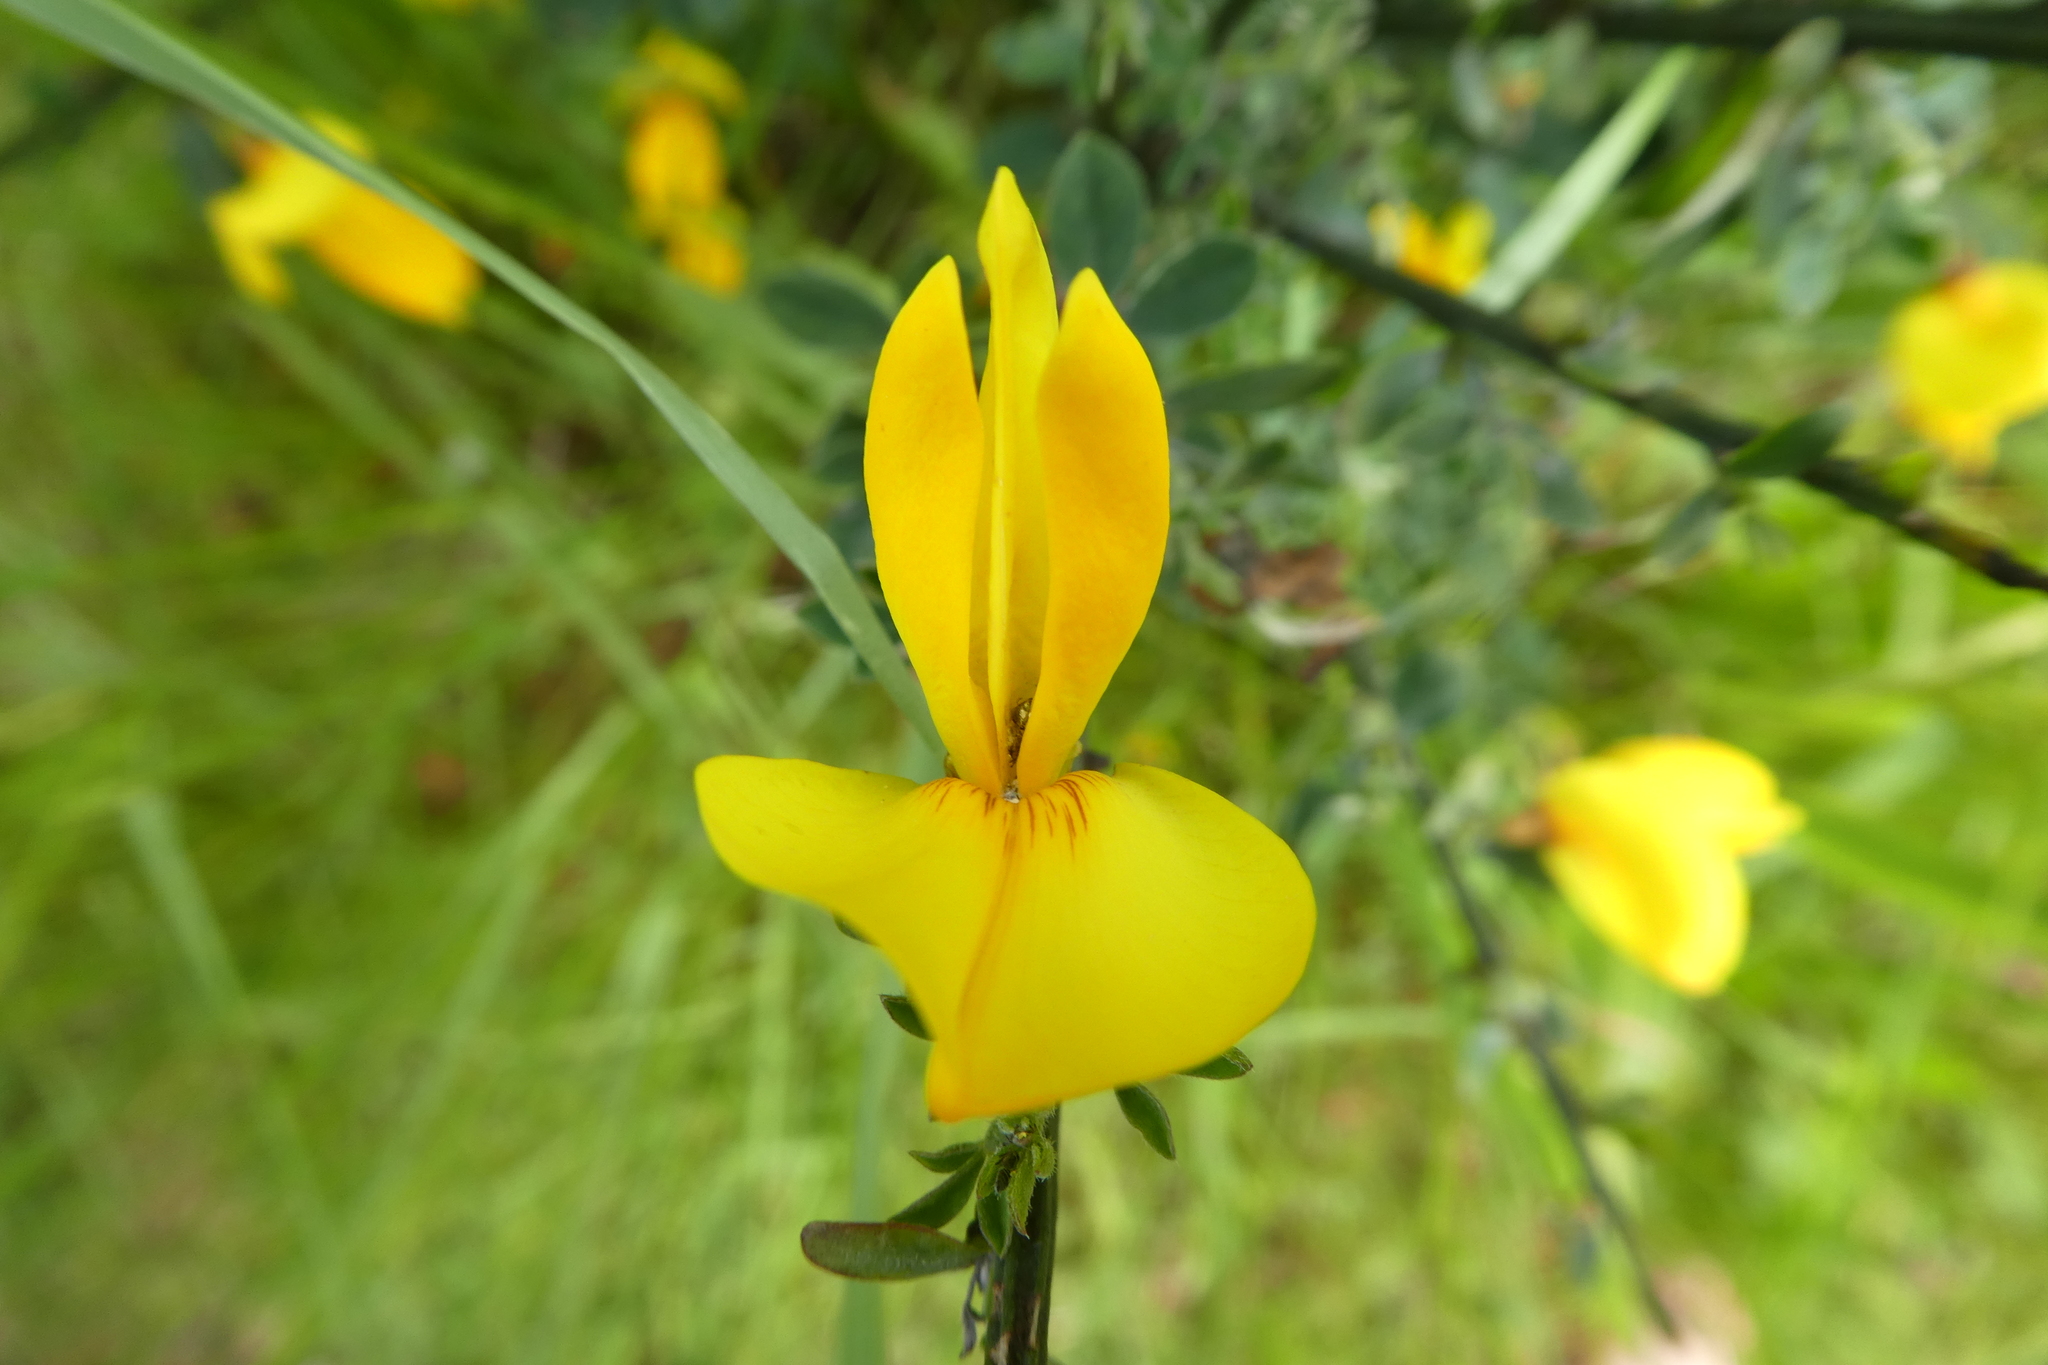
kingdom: Plantae
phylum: Tracheophyta
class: Magnoliopsida
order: Fabales
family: Fabaceae
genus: Cytisus
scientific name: Cytisus scoparius
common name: Scotch broom
